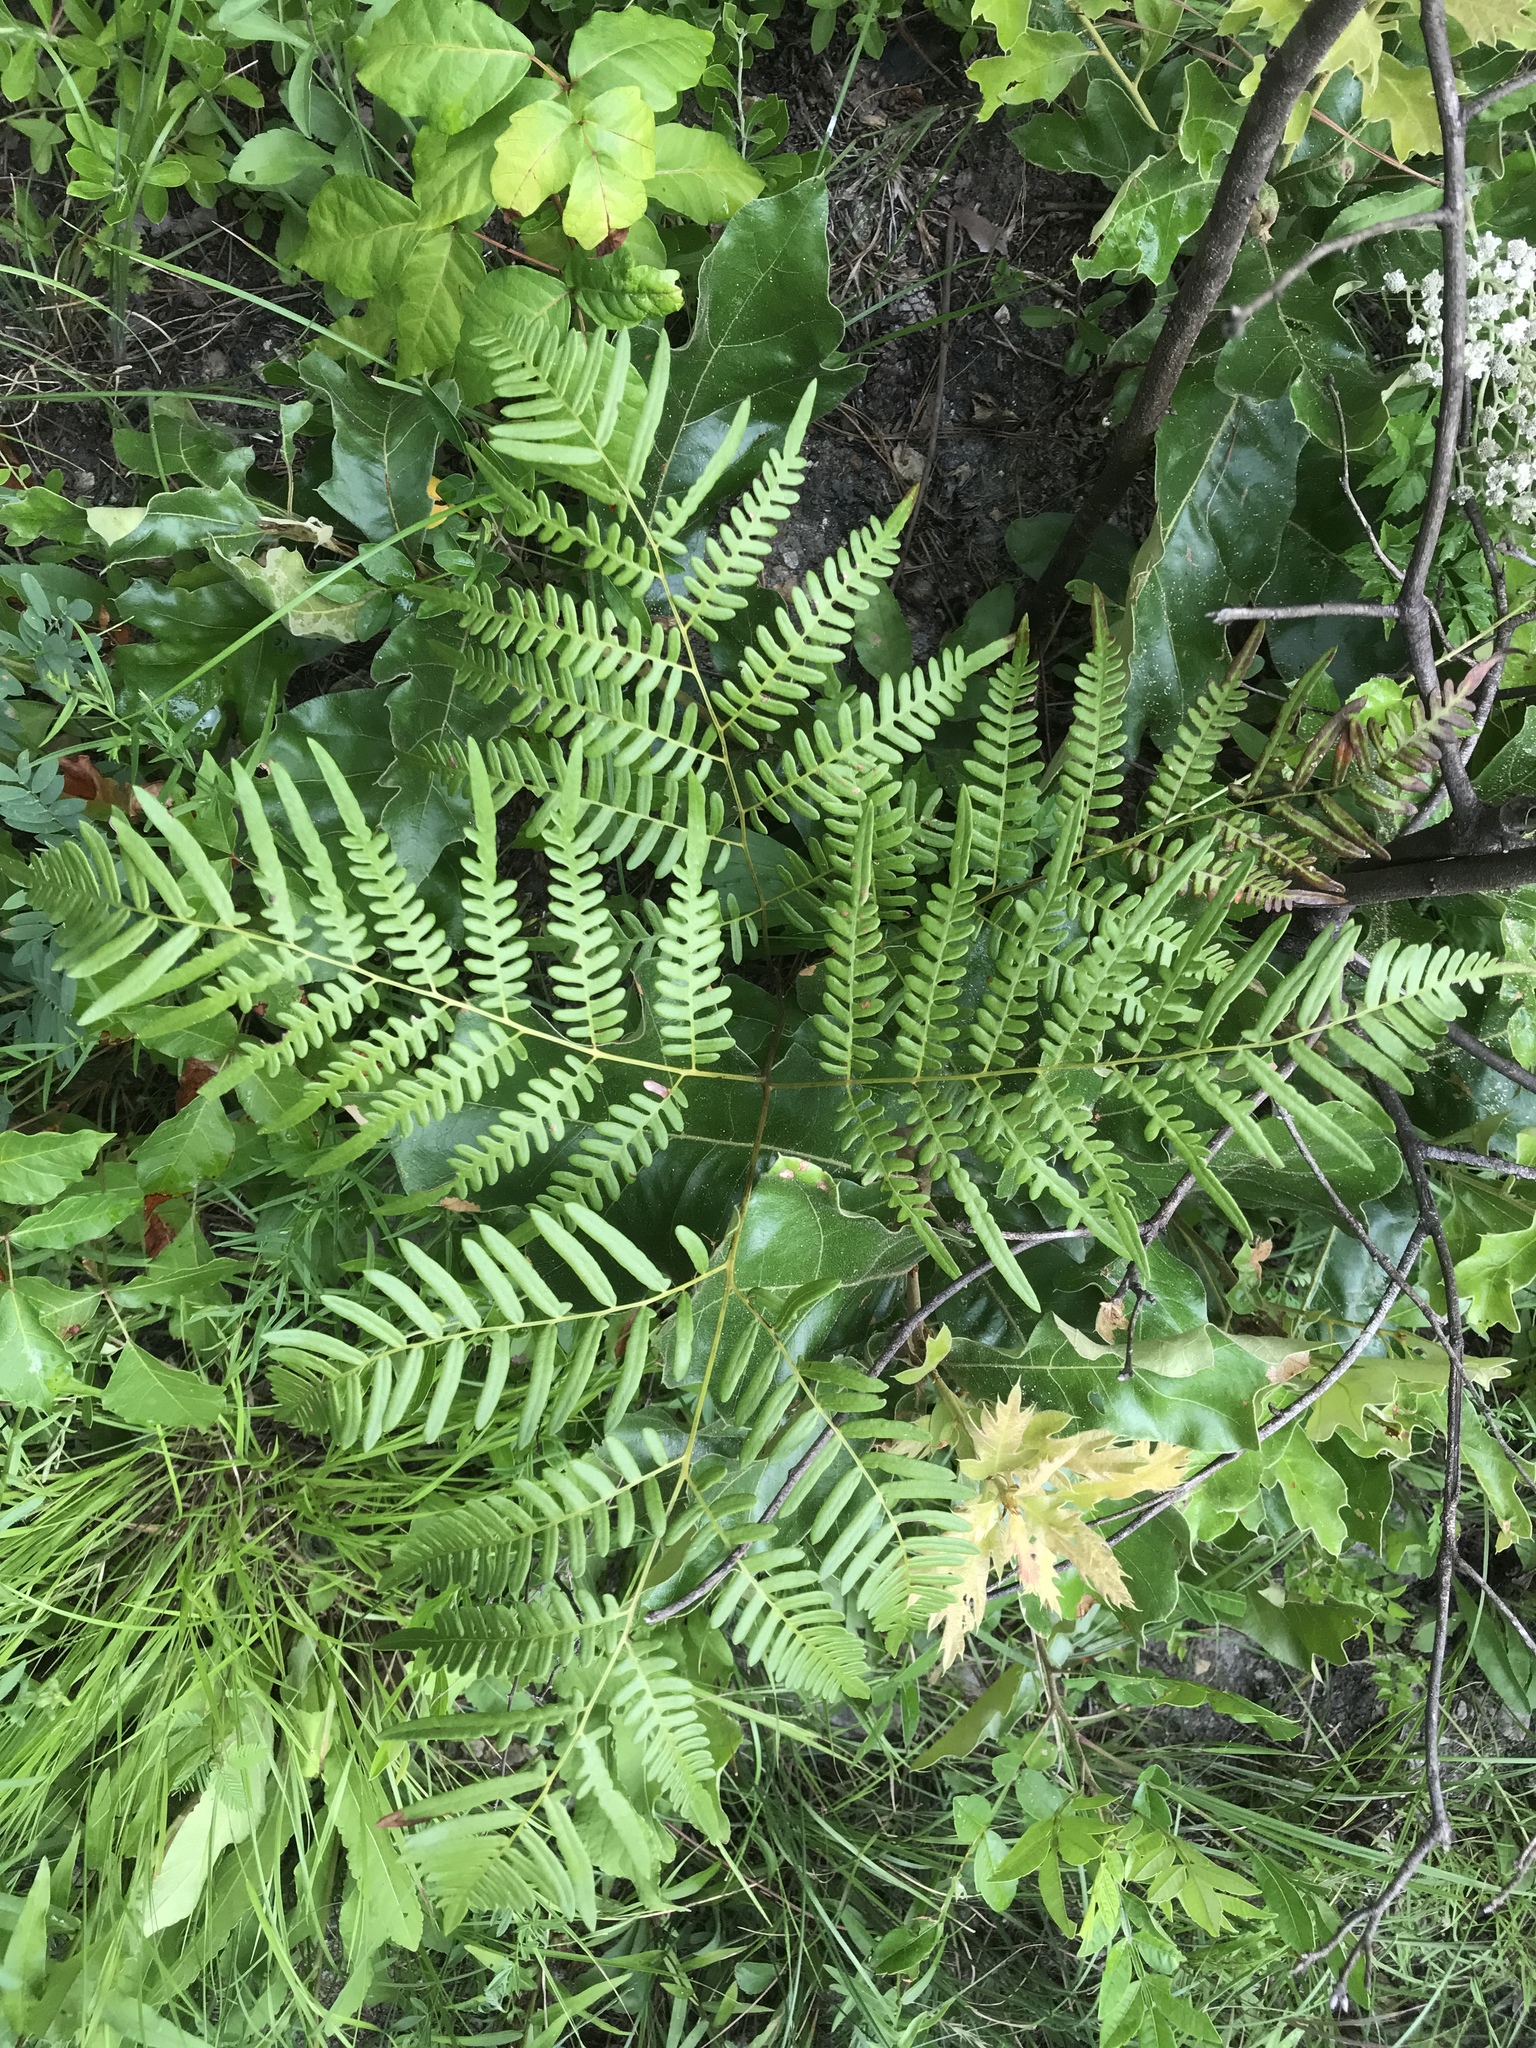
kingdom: Plantae
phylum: Tracheophyta
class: Polypodiopsida
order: Polypodiales
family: Dennstaedtiaceae
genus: Pteridium
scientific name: Pteridium
